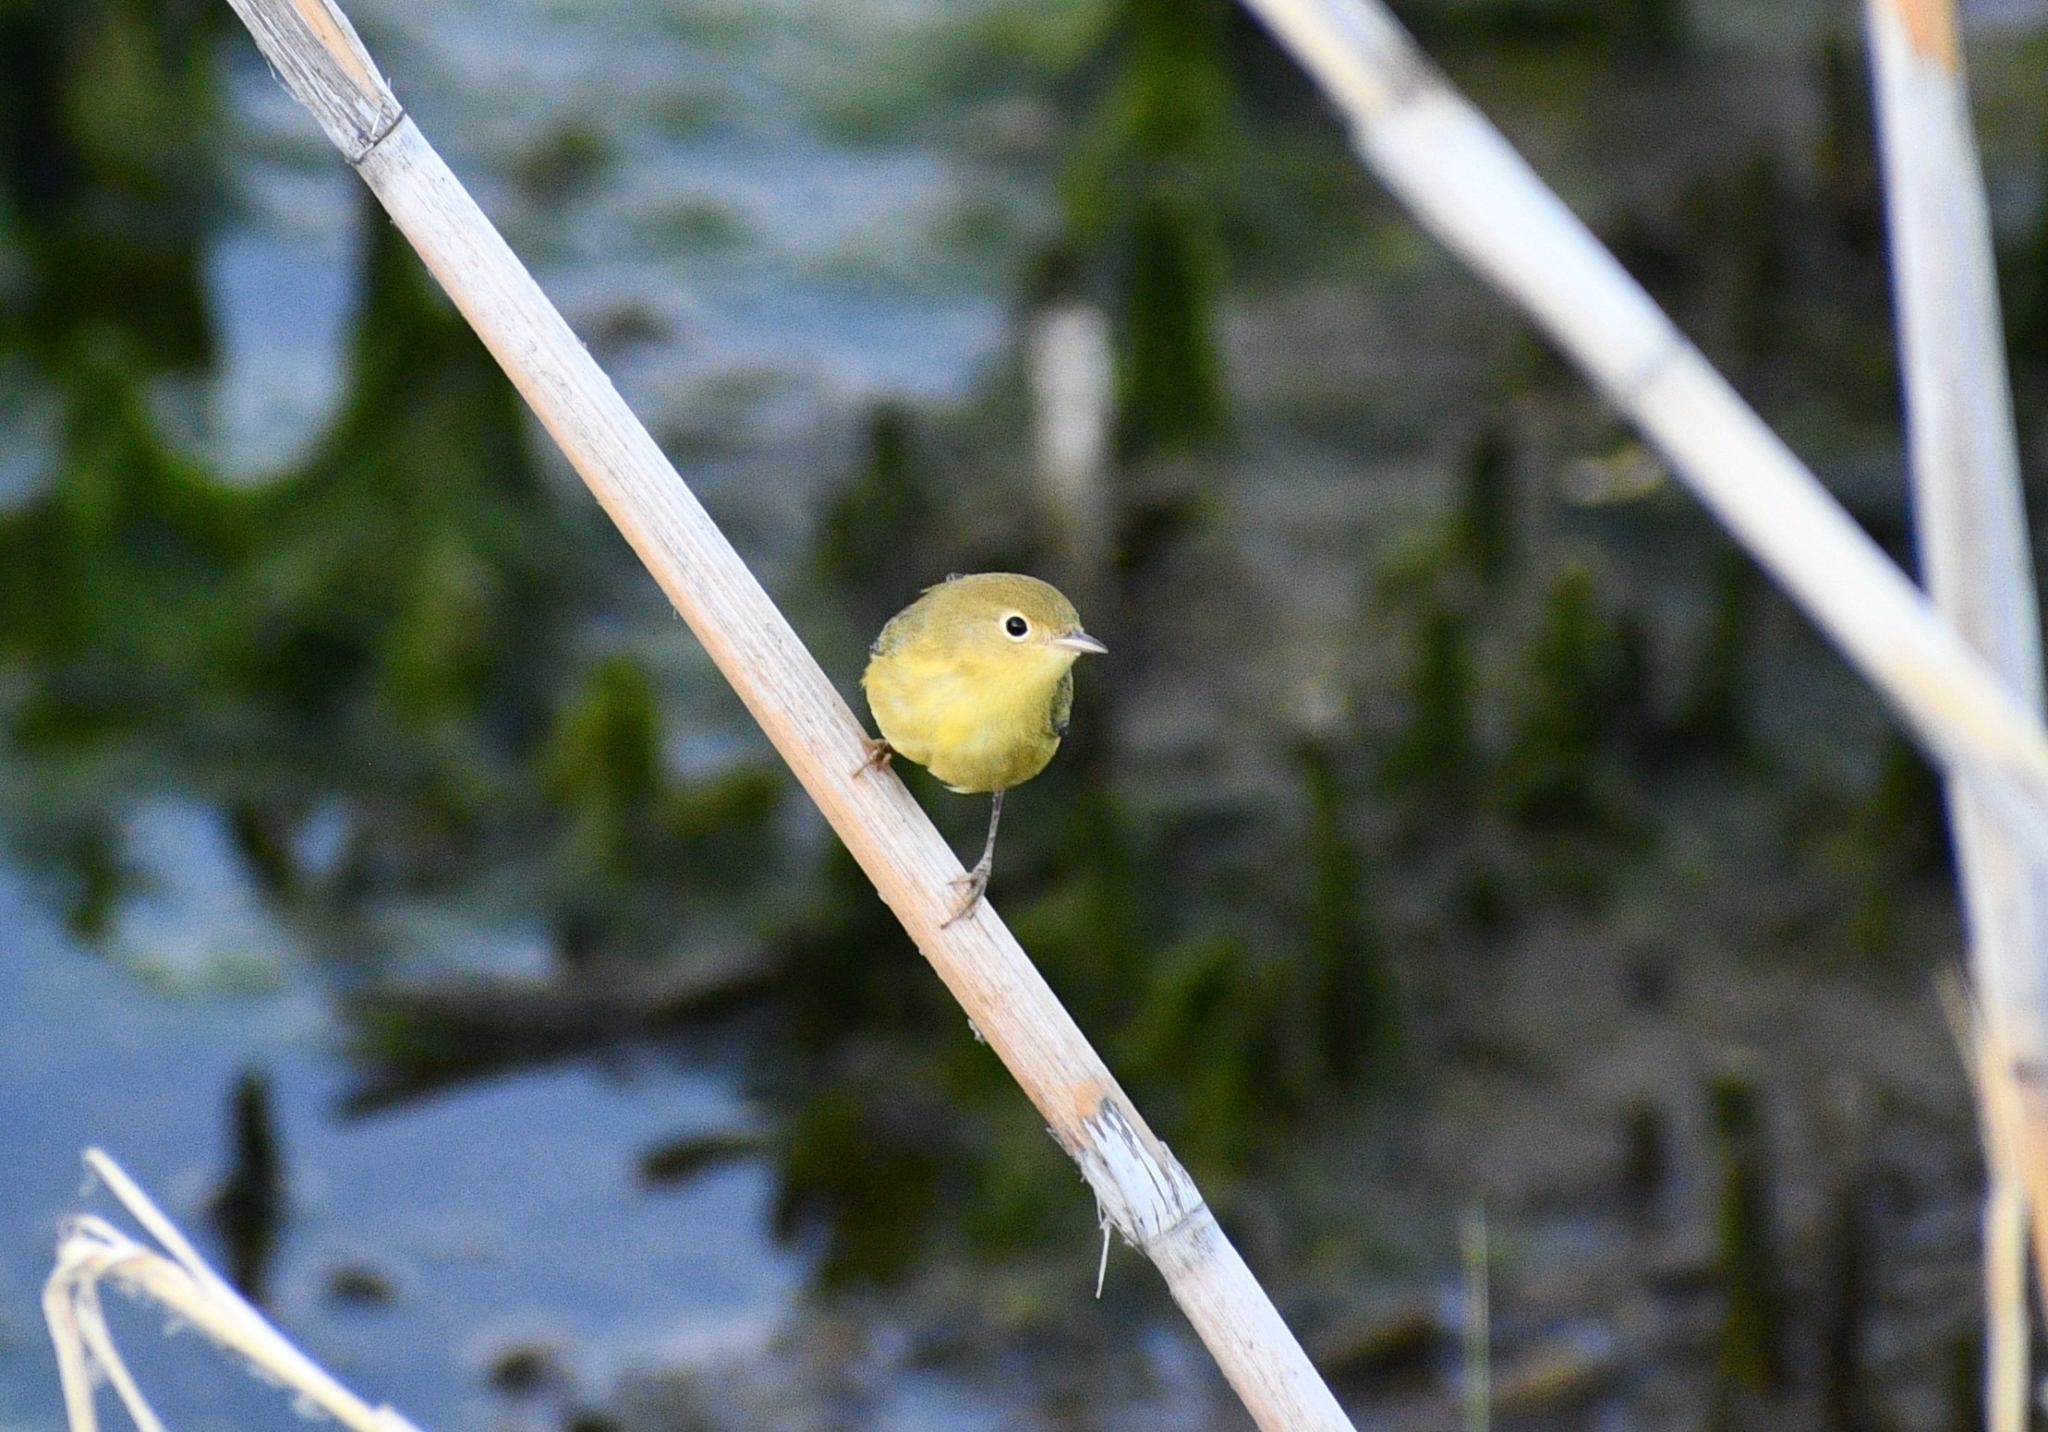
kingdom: Animalia
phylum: Chordata
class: Aves
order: Passeriformes
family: Parulidae
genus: Setophaga
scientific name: Setophaga petechia
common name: Yellow warbler
